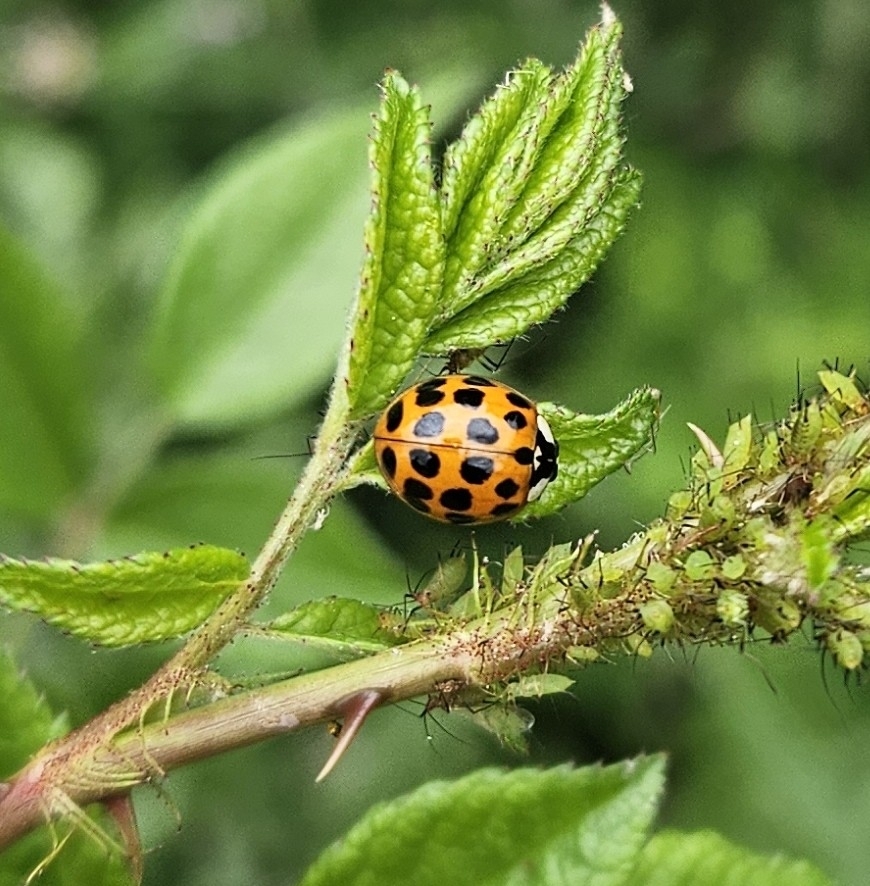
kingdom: Animalia
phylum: Arthropoda
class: Insecta
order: Coleoptera
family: Coccinellidae
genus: Harmonia
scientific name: Harmonia axyridis
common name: Harlequin ladybird
